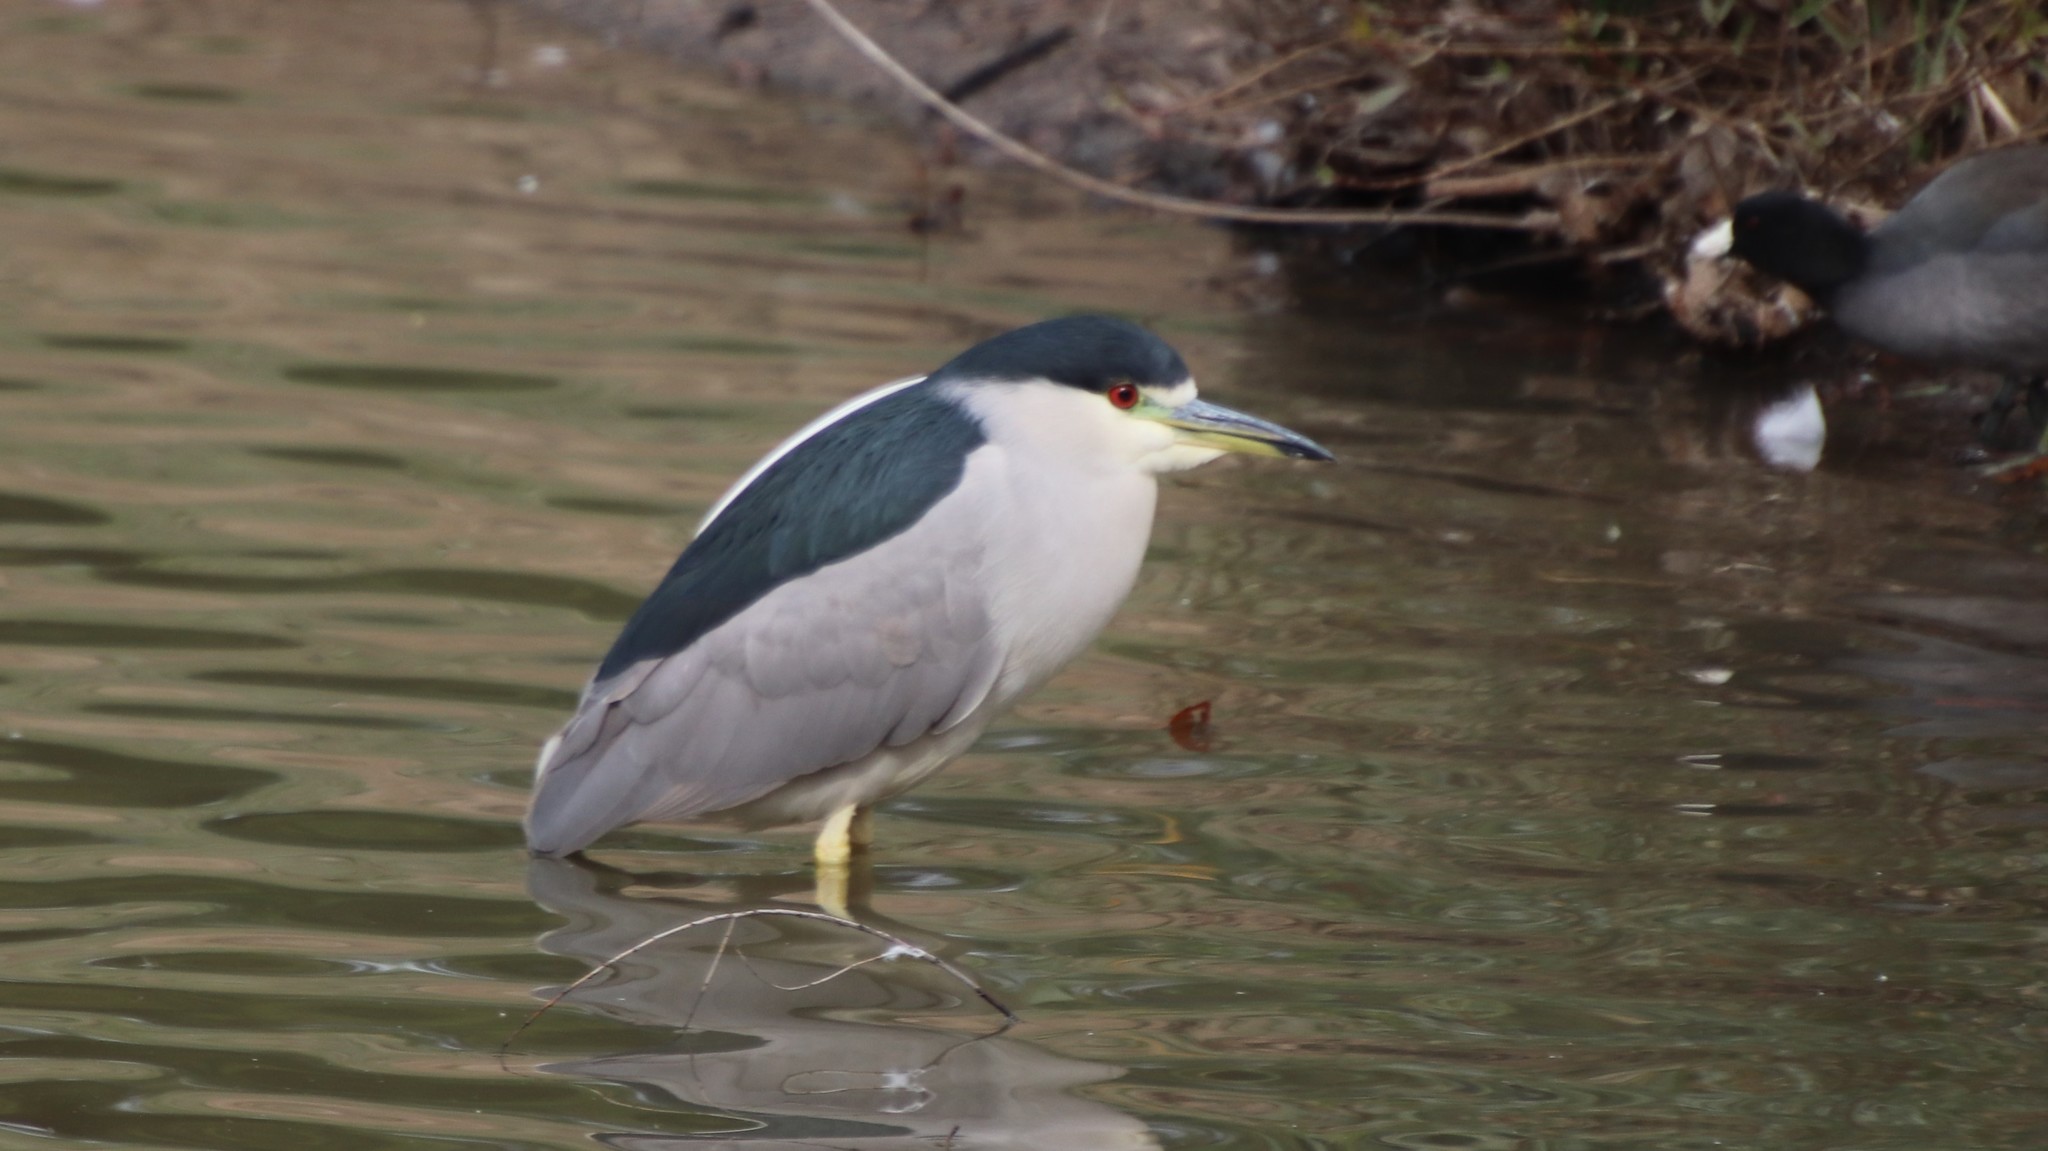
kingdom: Animalia
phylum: Chordata
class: Aves
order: Pelecaniformes
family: Ardeidae
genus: Nycticorax
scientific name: Nycticorax nycticorax
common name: Black-crowned night heron
